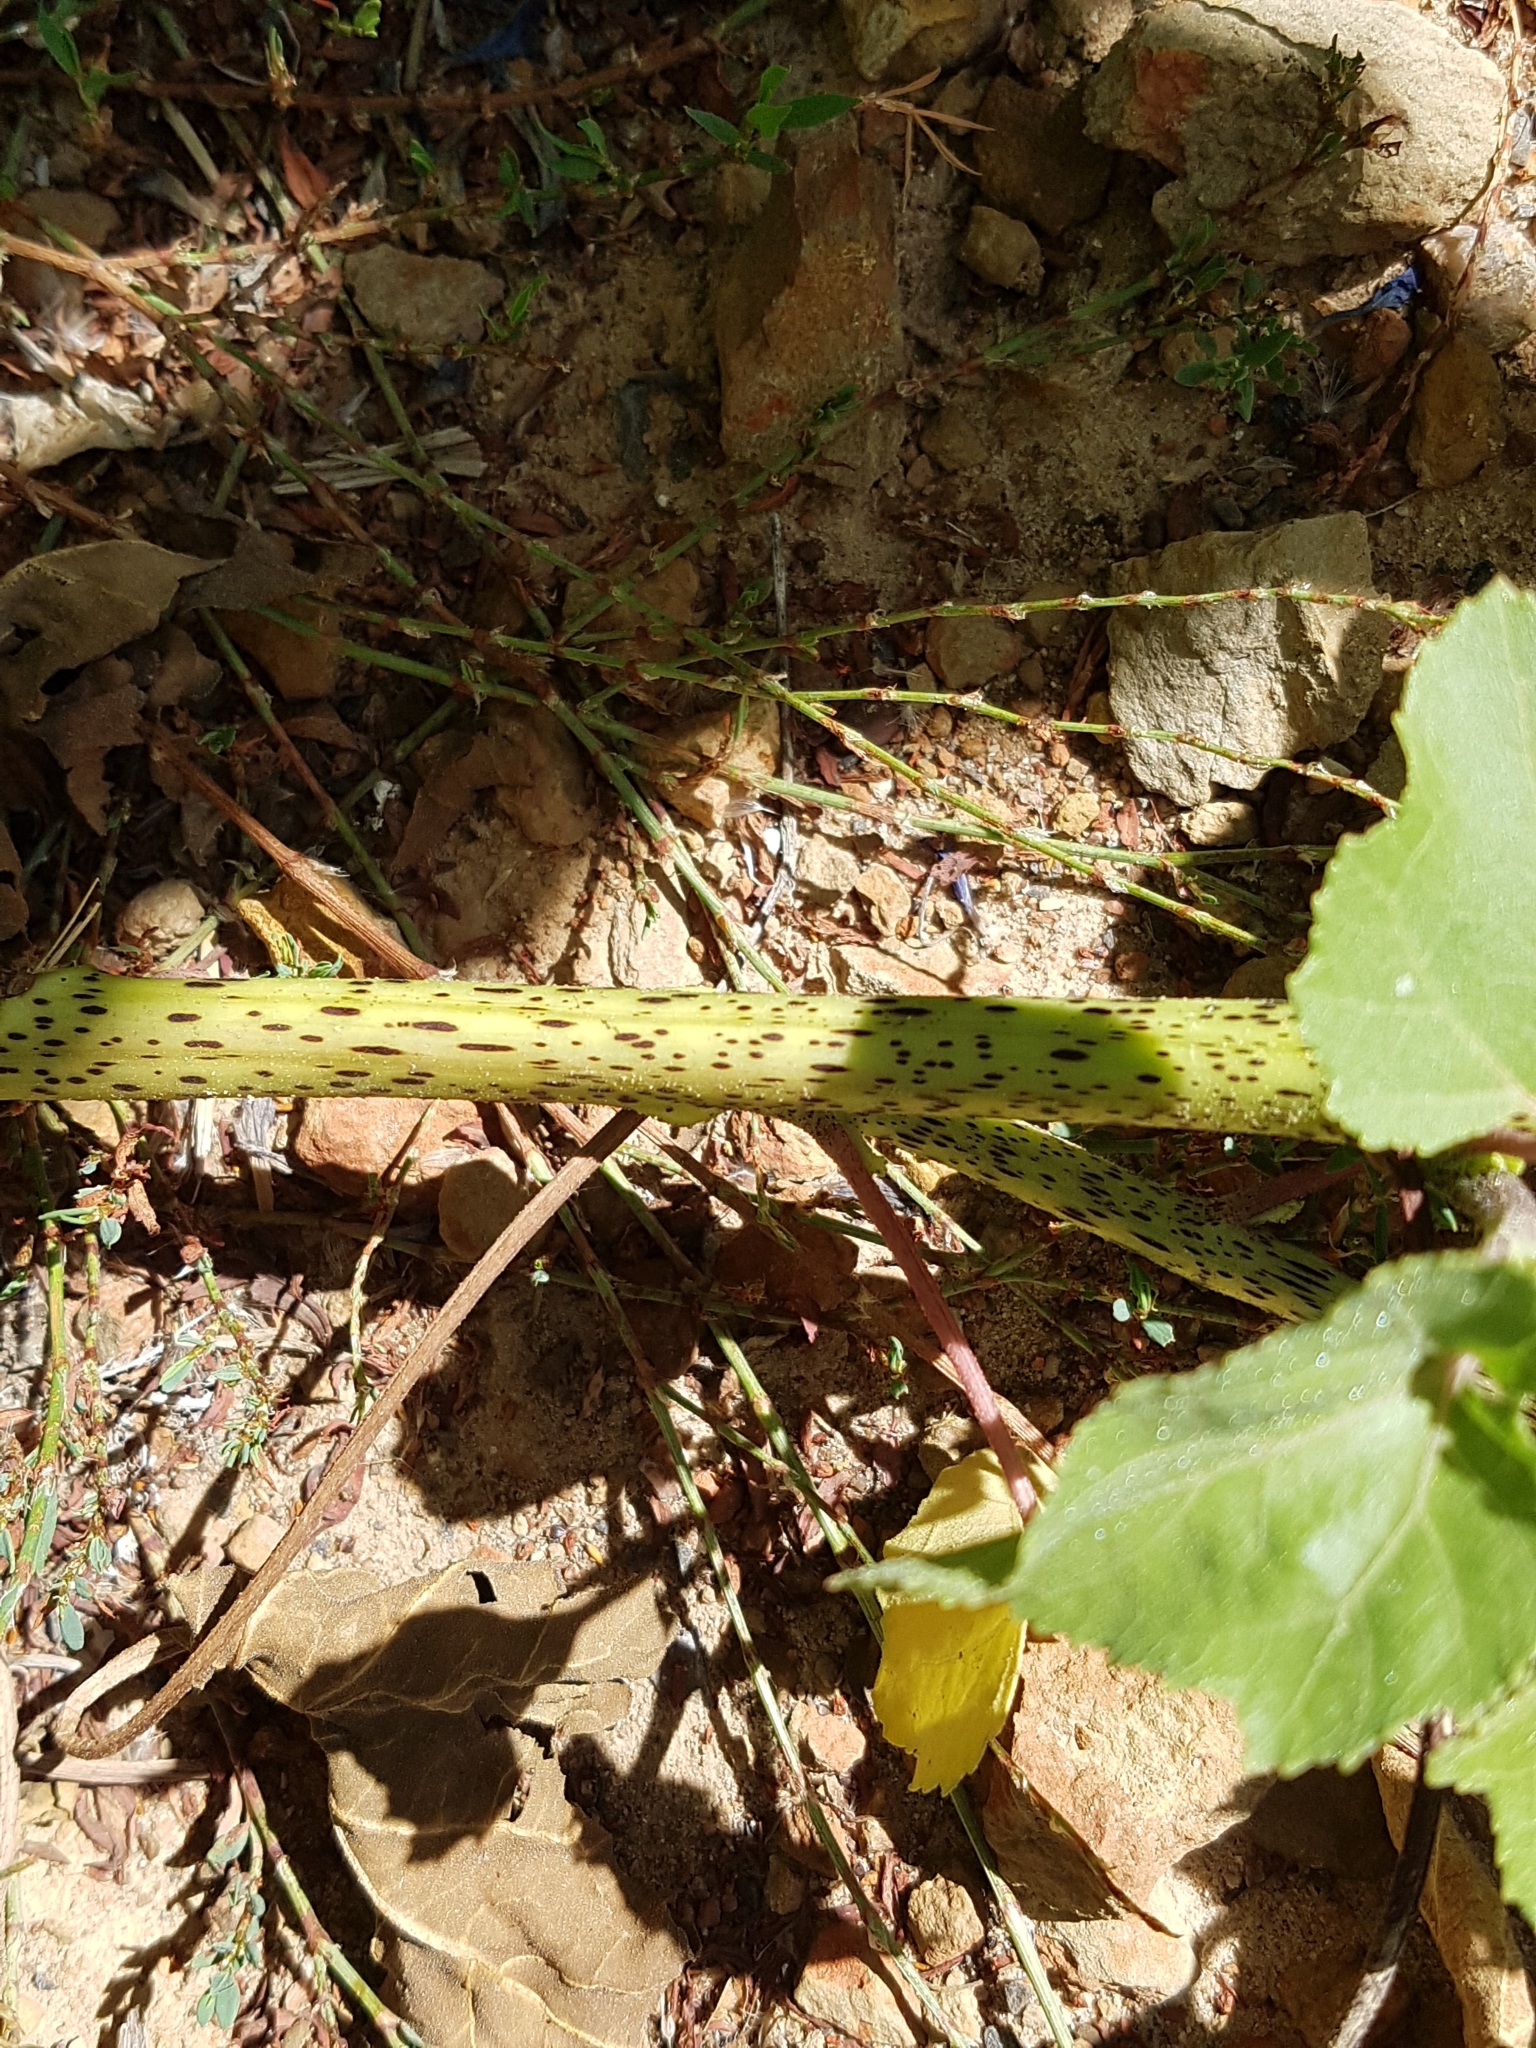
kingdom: Plantae
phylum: Tracheophyta
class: Magnoliopsida
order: Asterales
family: Asteraceae
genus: Xanthium
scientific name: Xanthium strumarium
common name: Rough cocklebur
